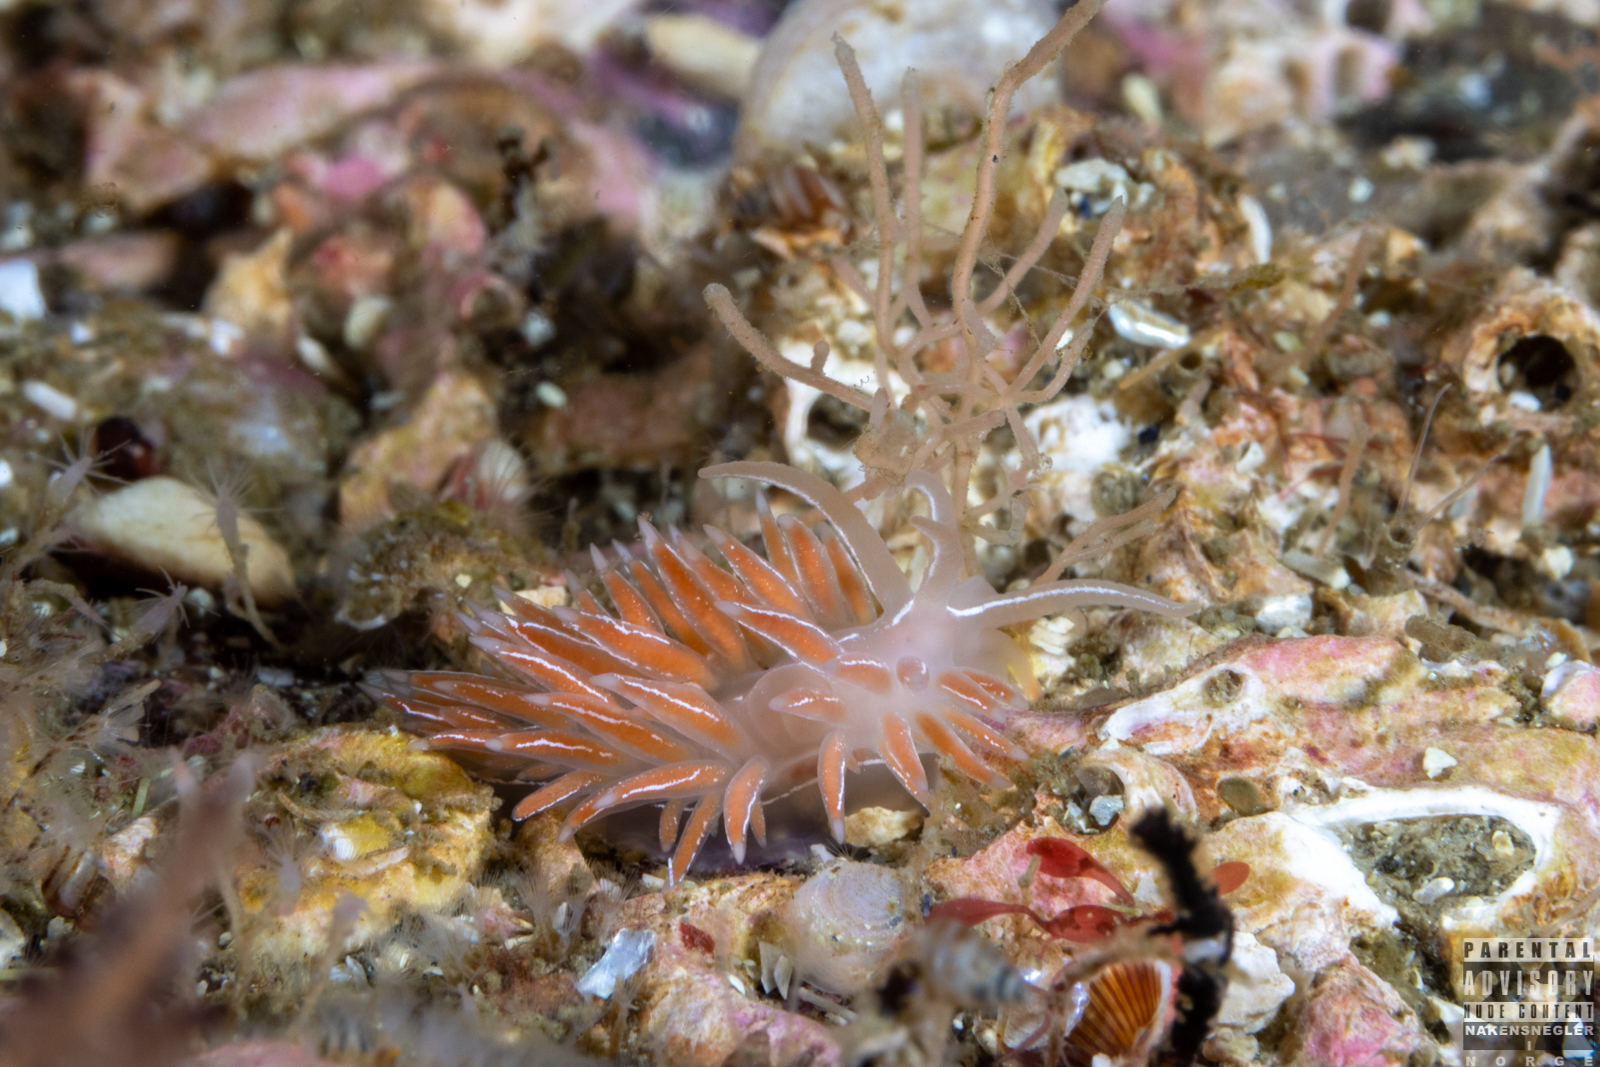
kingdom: Animalia
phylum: Mollusca
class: Gastropoda
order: Nudibranchia
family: Coryphellidae
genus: Coryphella
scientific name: Coryphella chriskaugei
